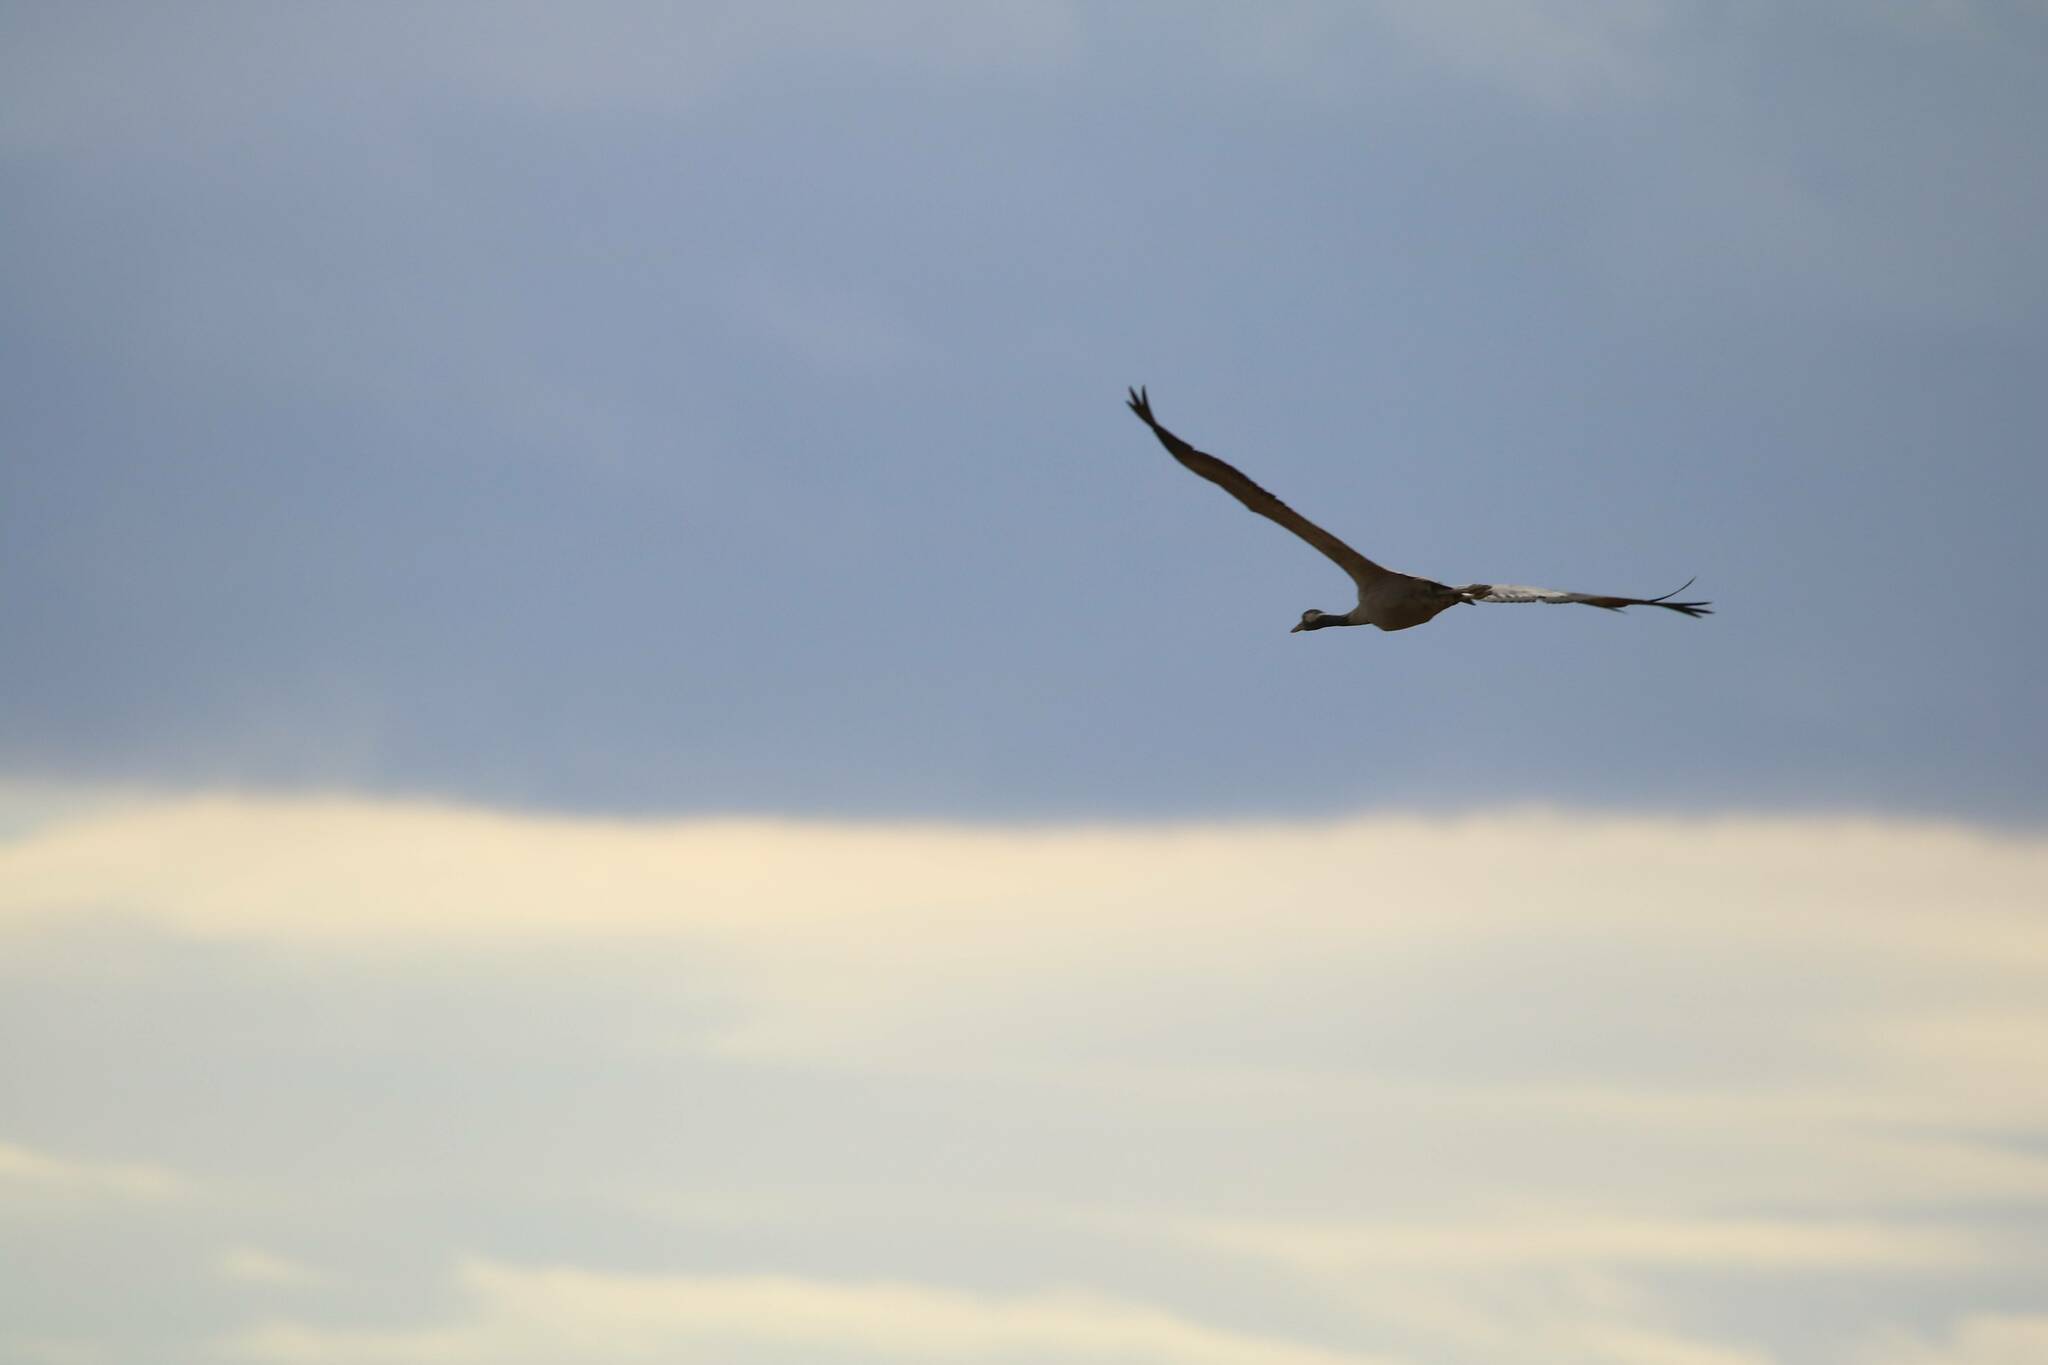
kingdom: Animalia
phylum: Chordata
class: Aves
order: Gruiformes
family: Gruidae
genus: Grus
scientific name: Grus grus
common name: Common crane
